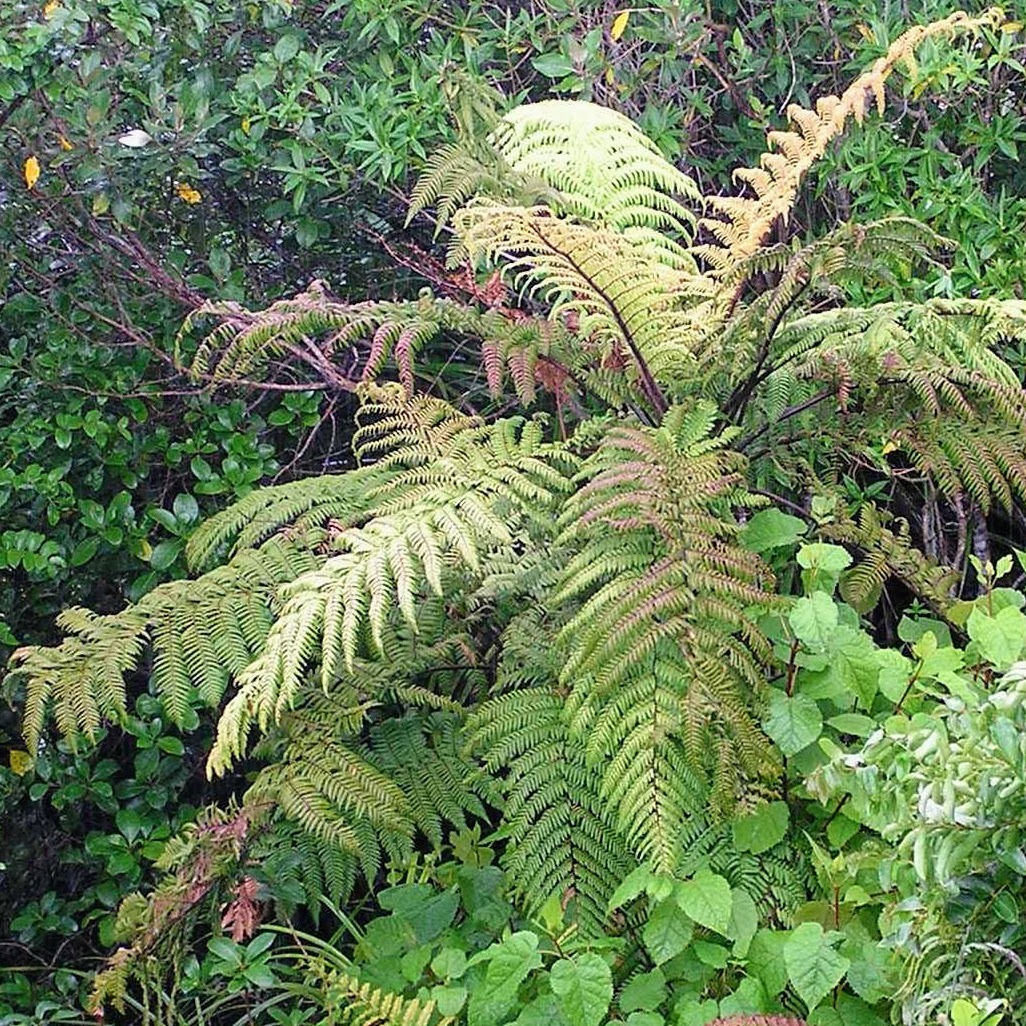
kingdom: Plantae
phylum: Tracheophyta
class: Polypodiopsida
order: Cyatheales
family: Dicksoniaceae
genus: Dicksonia
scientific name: Dicksonia squarrosa
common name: Hard treefern
